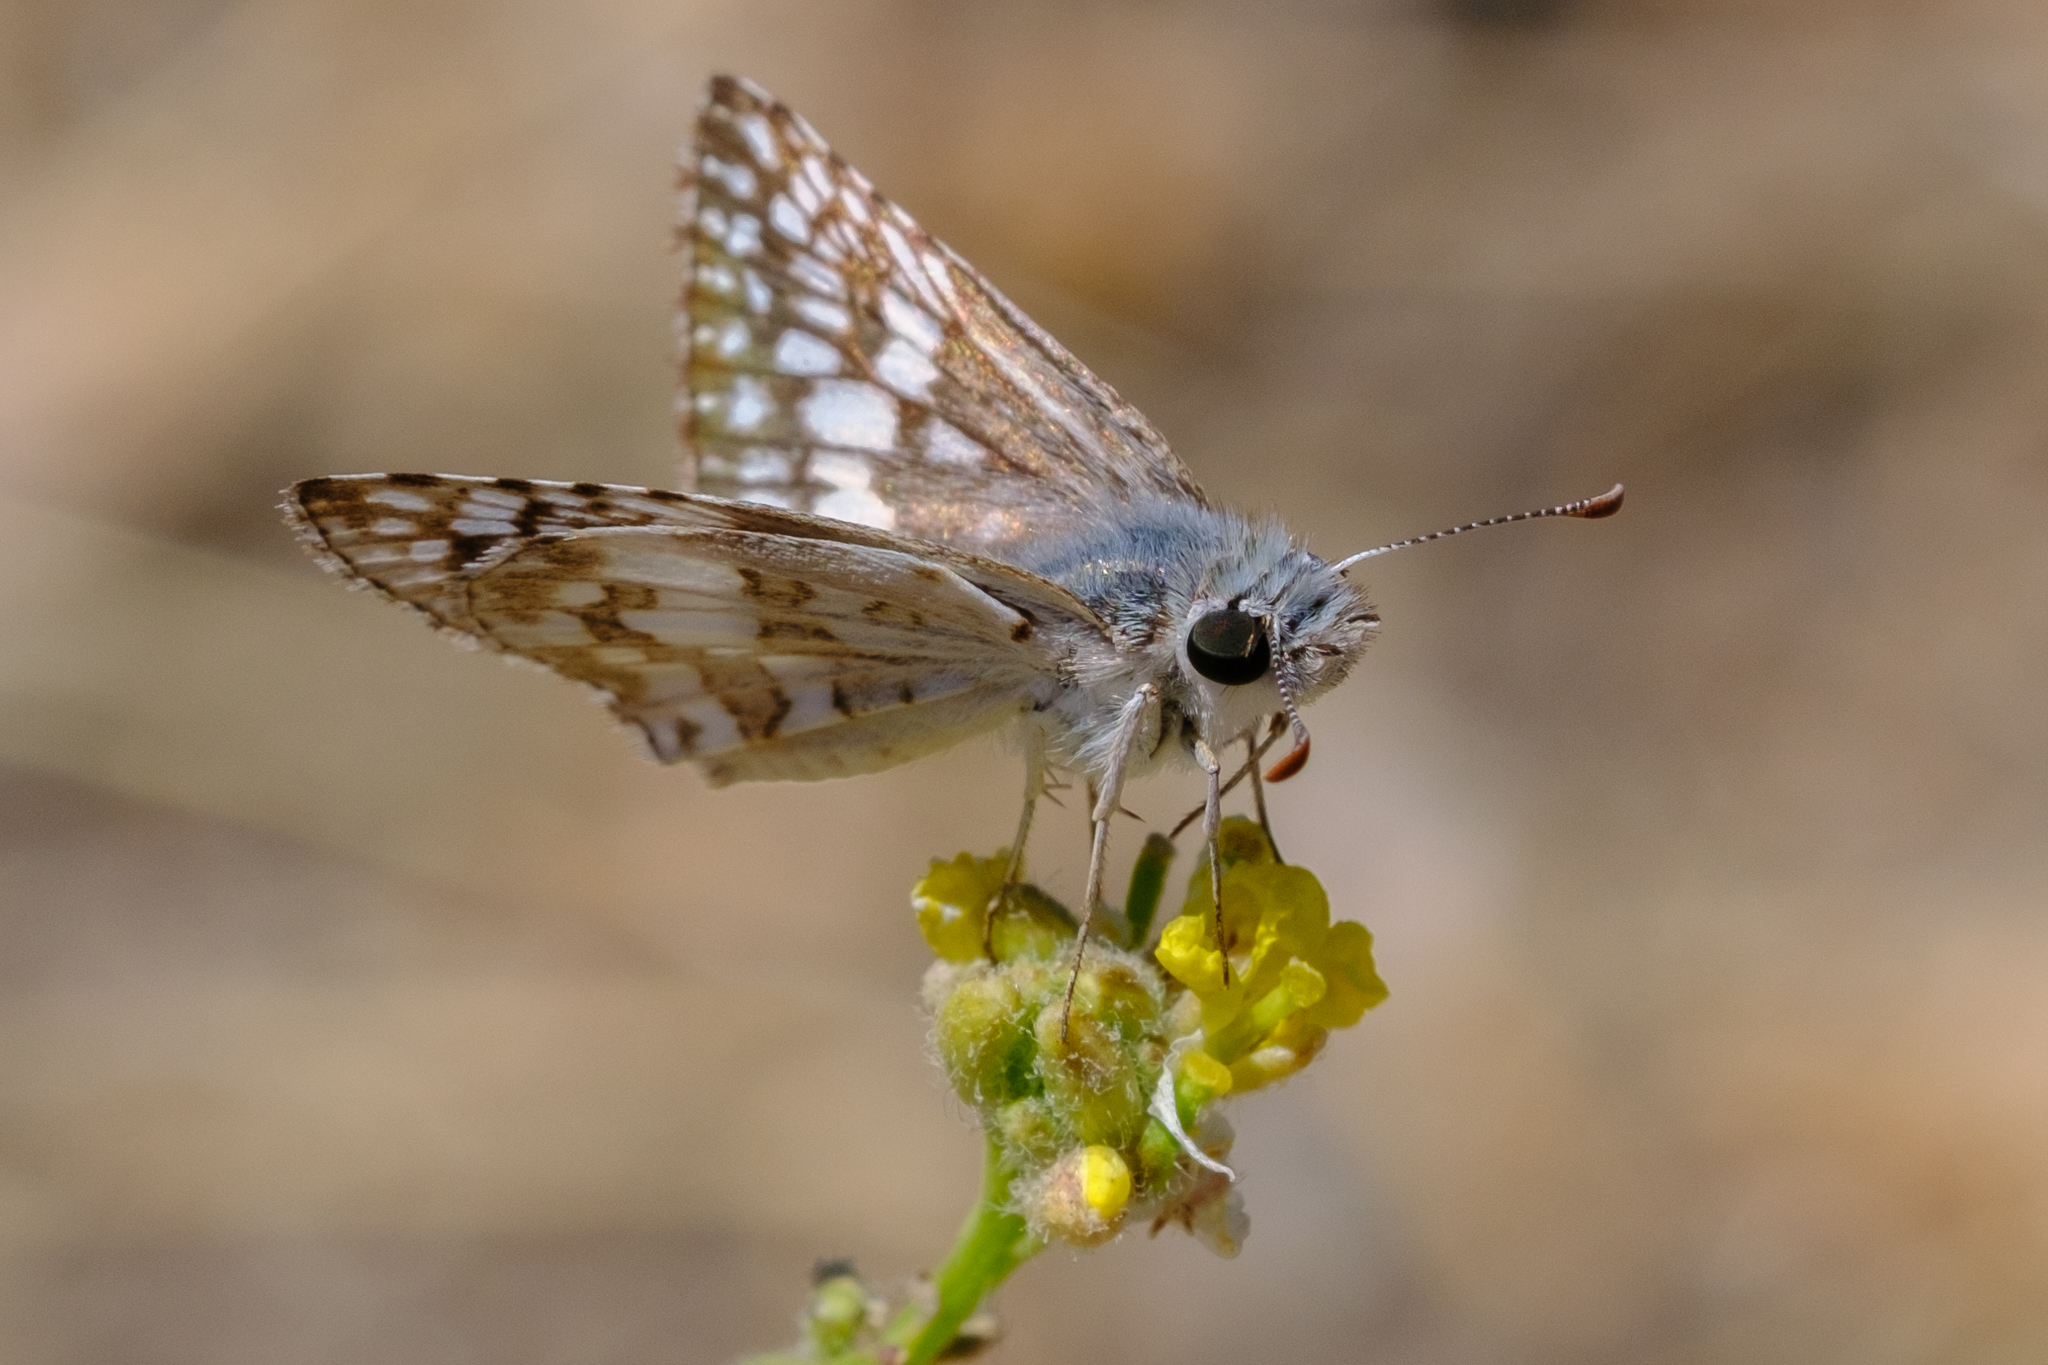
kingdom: Animalia
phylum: Arthropoda
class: Insecta
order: Lepidoptera
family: Hesperiidae
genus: Burnsius
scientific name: Burnsius albezens
